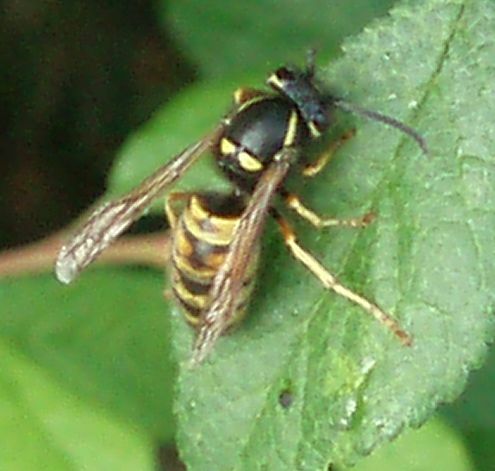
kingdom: Animalia
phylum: Arthropoda
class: Insecta
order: Hymenoptera
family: Vespidae
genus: Vespula
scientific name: Vespula rufa
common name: Red wasp
